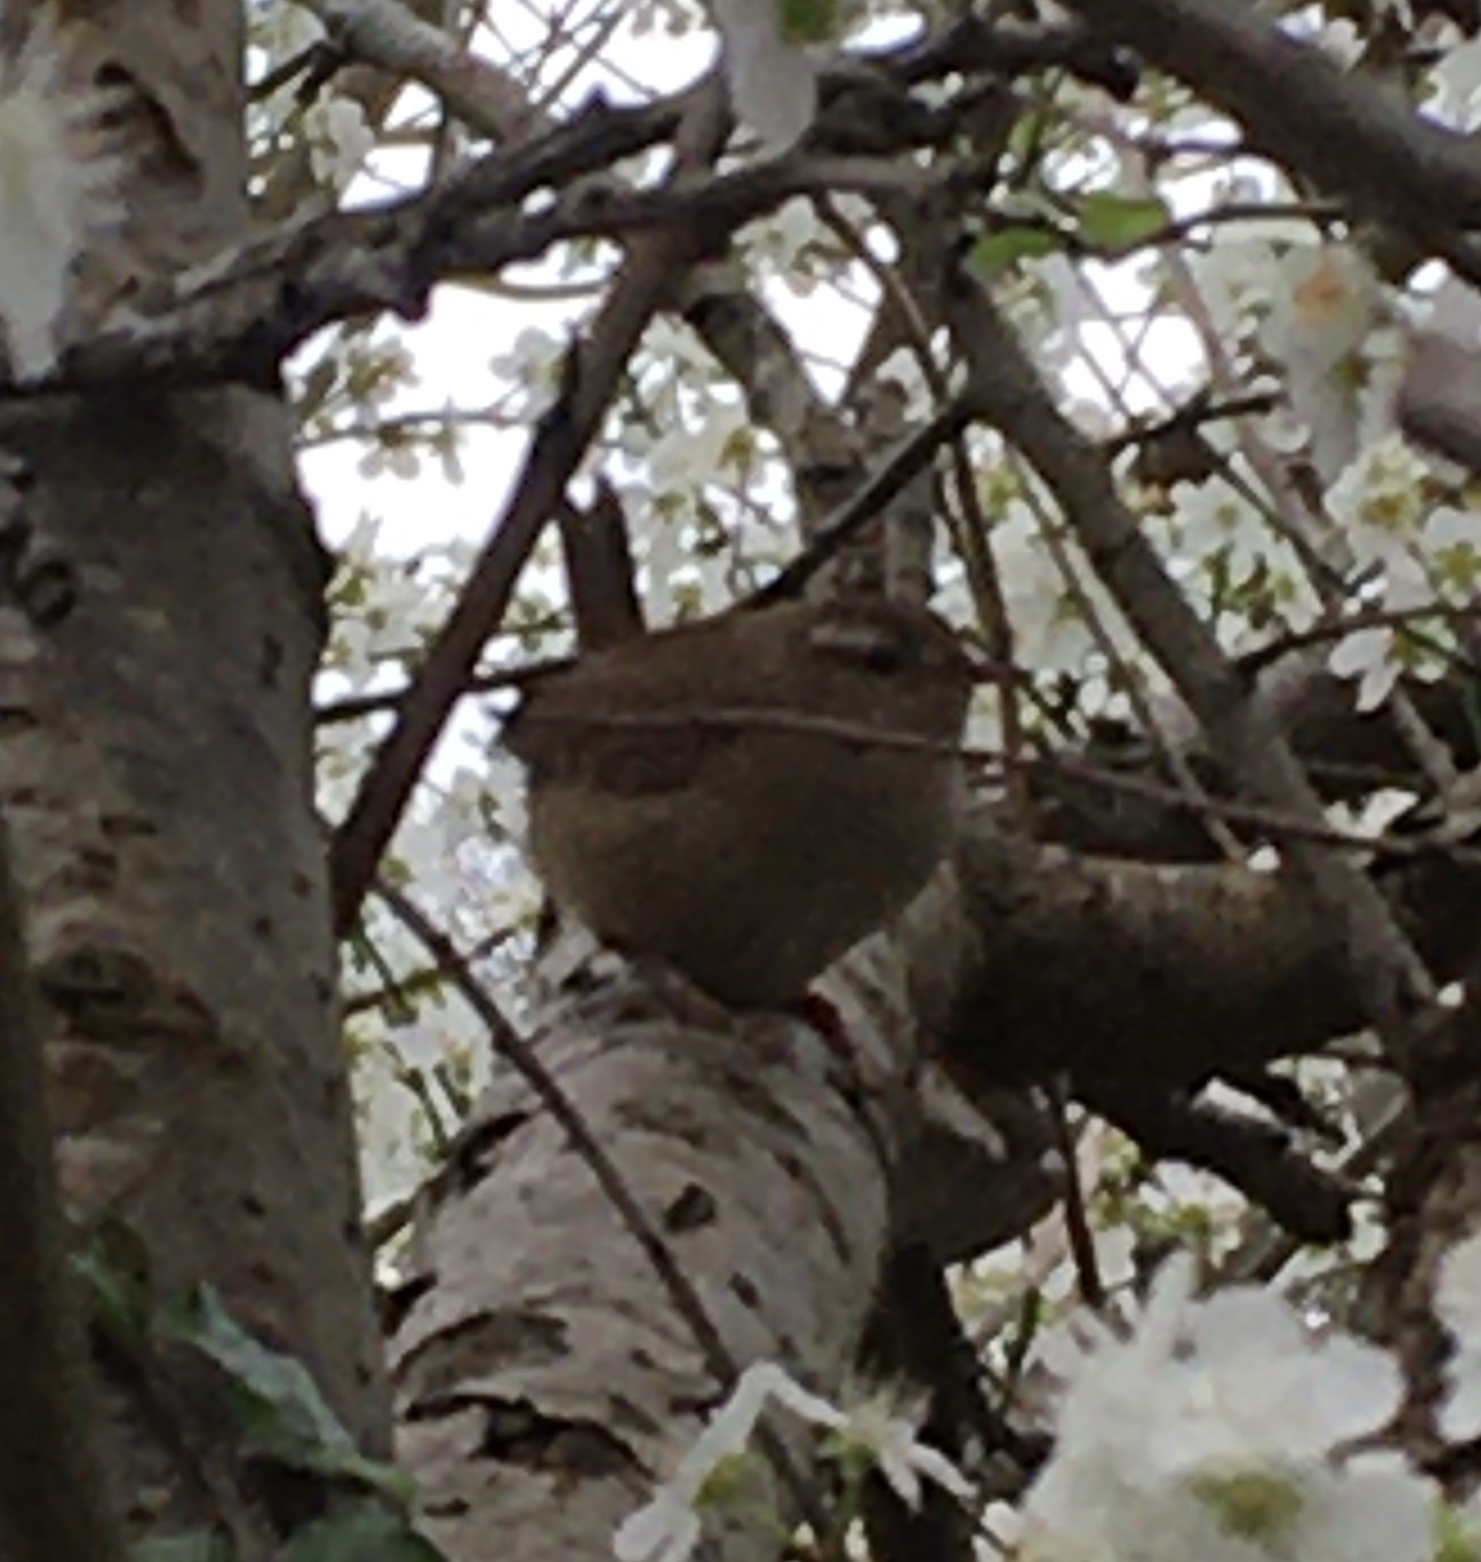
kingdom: Animalia
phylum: Chordata
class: Aves
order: Passeriformes
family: Troglodytidae
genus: Troglodytes
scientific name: Troglodytes troglodytes
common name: Eurasian wren
